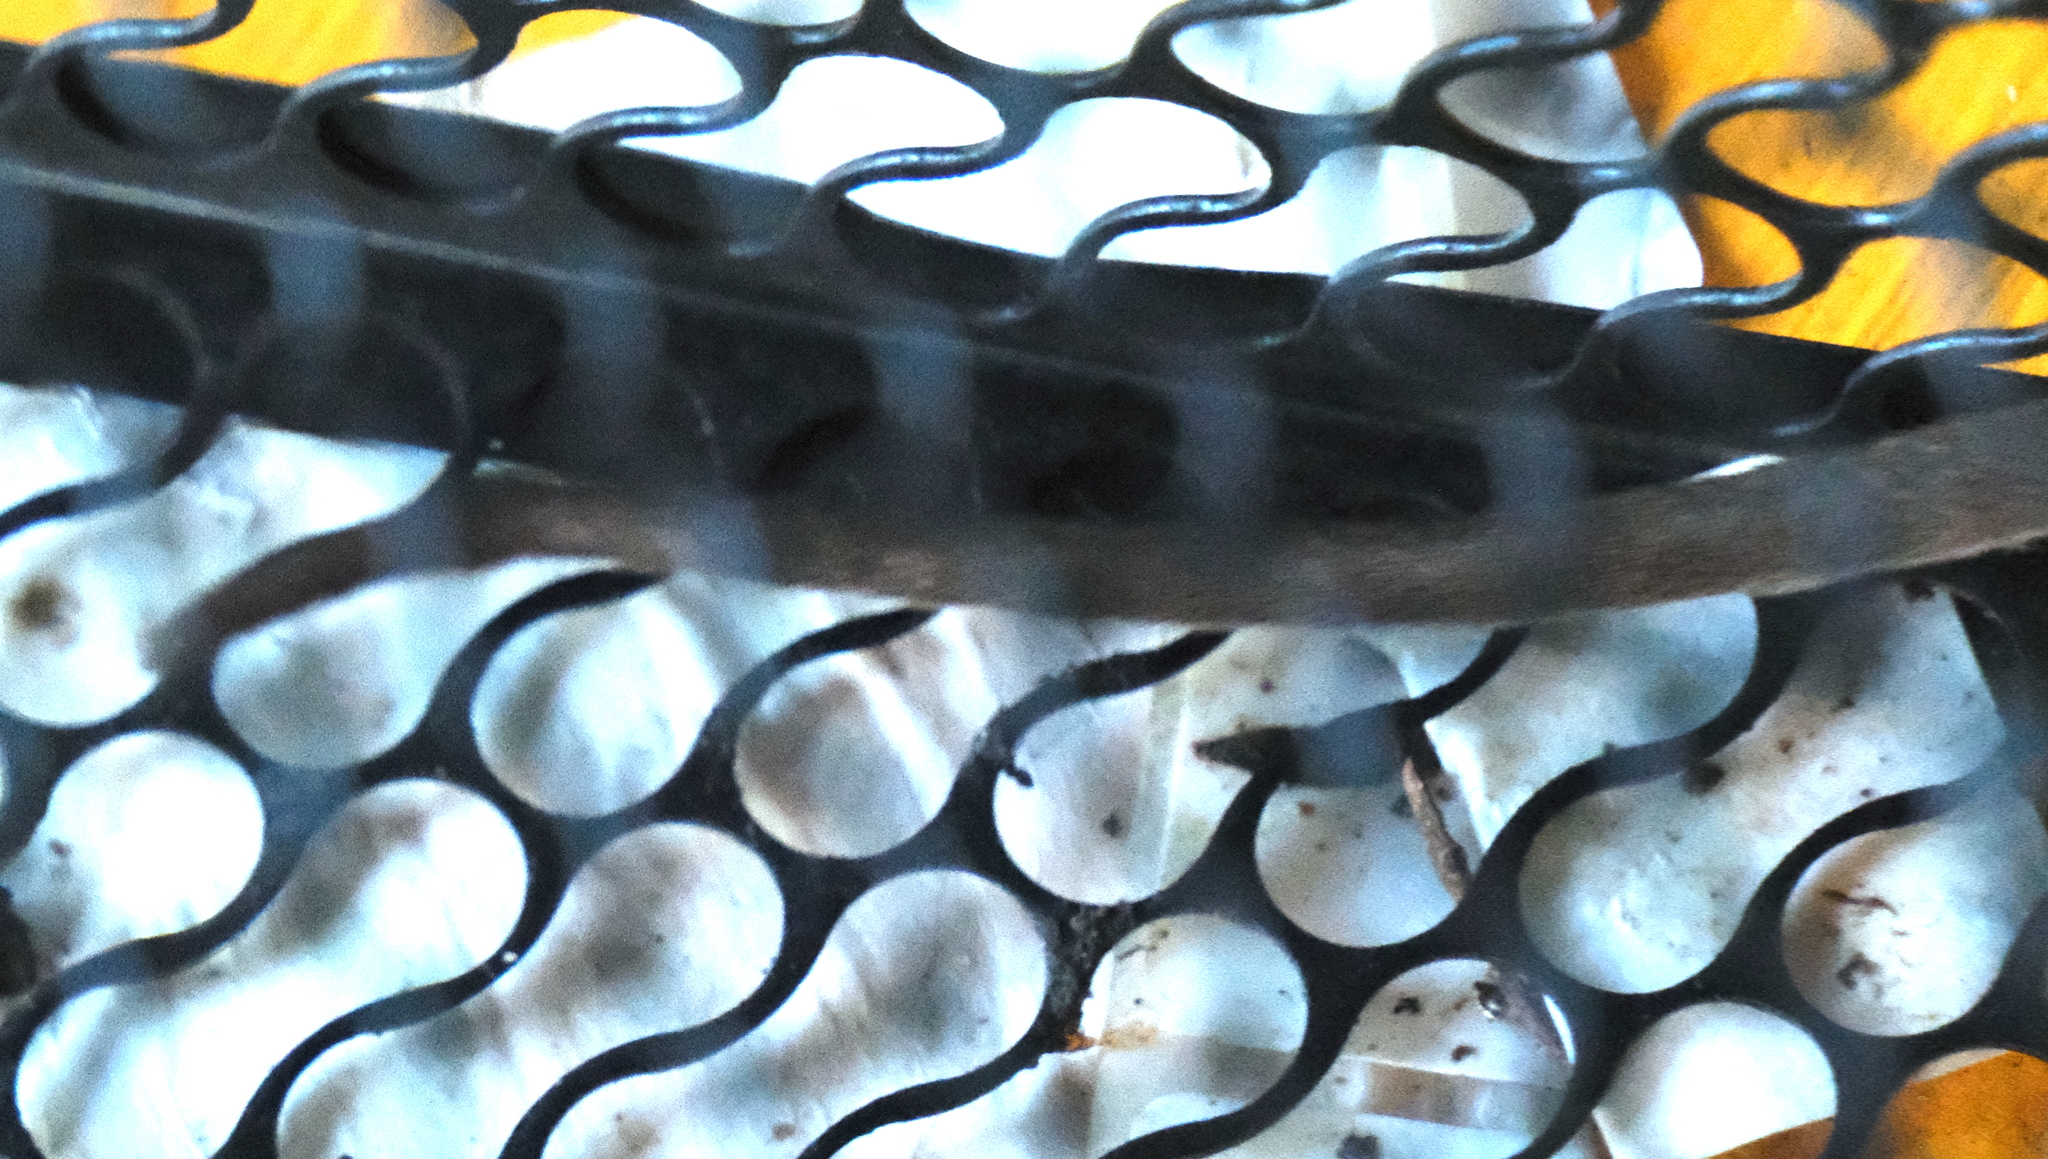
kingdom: Animalia
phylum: Chordata
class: Mammalia
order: Rodentia
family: Muridae
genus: Rattus
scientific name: Rattus rattus
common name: Black rat
